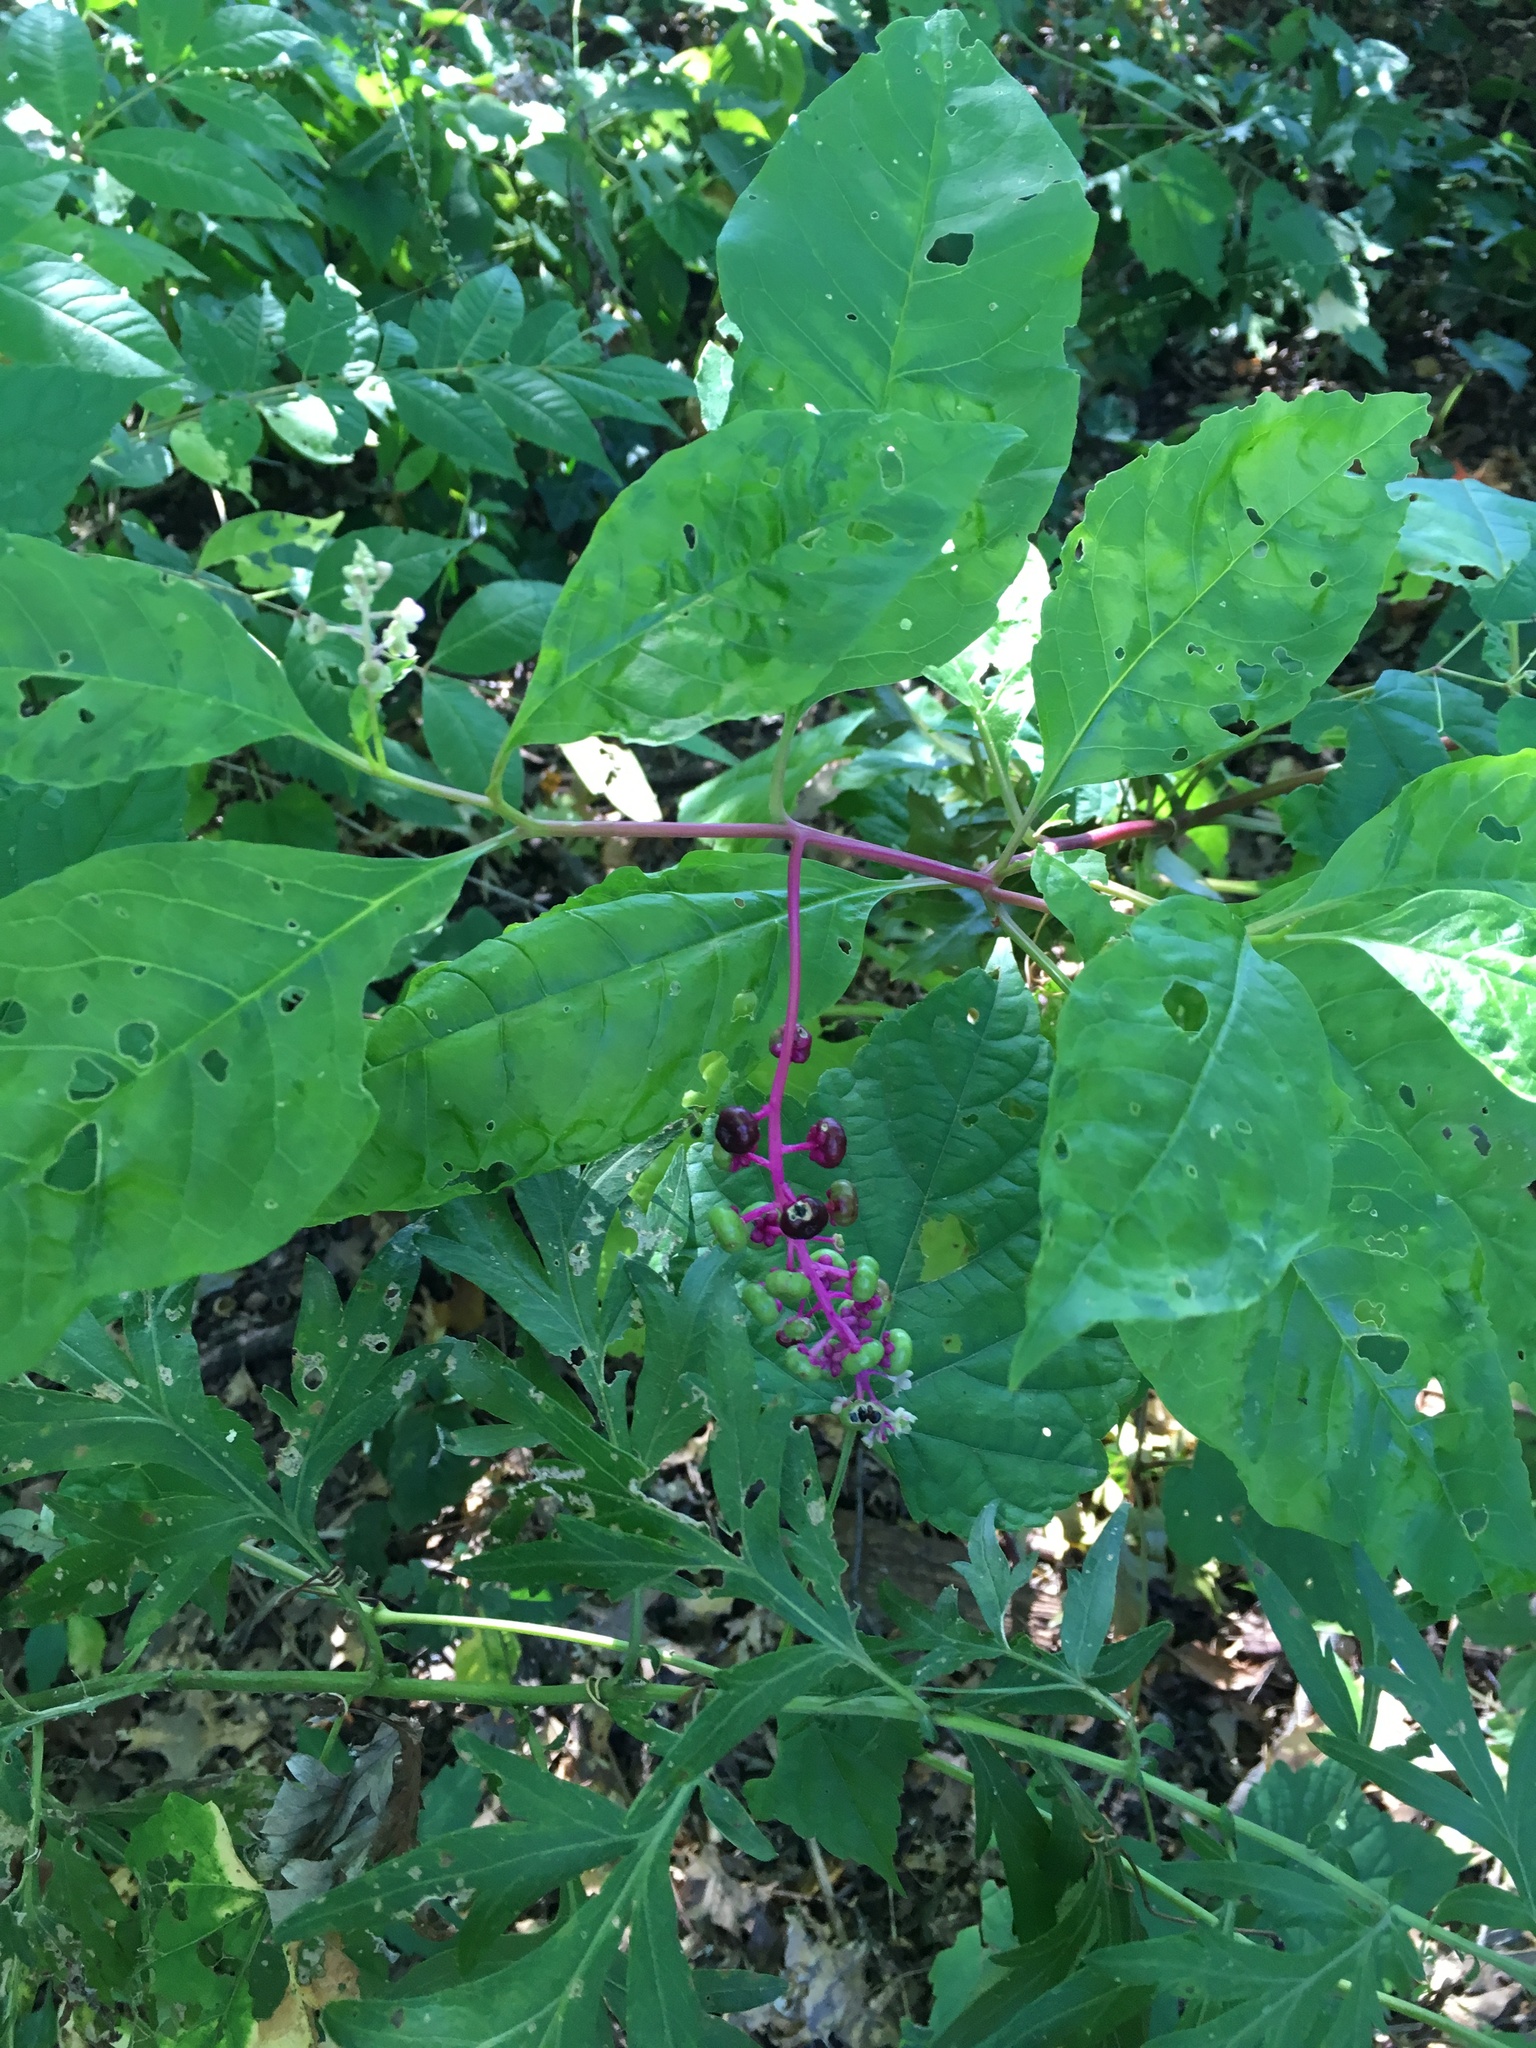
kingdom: Plantae
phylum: Tracheophyta
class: Magnoliopsida
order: Caryophyllales
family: Phytolaccaceae
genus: Phytolacca
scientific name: Phytolacca americana
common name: American pokeweed
